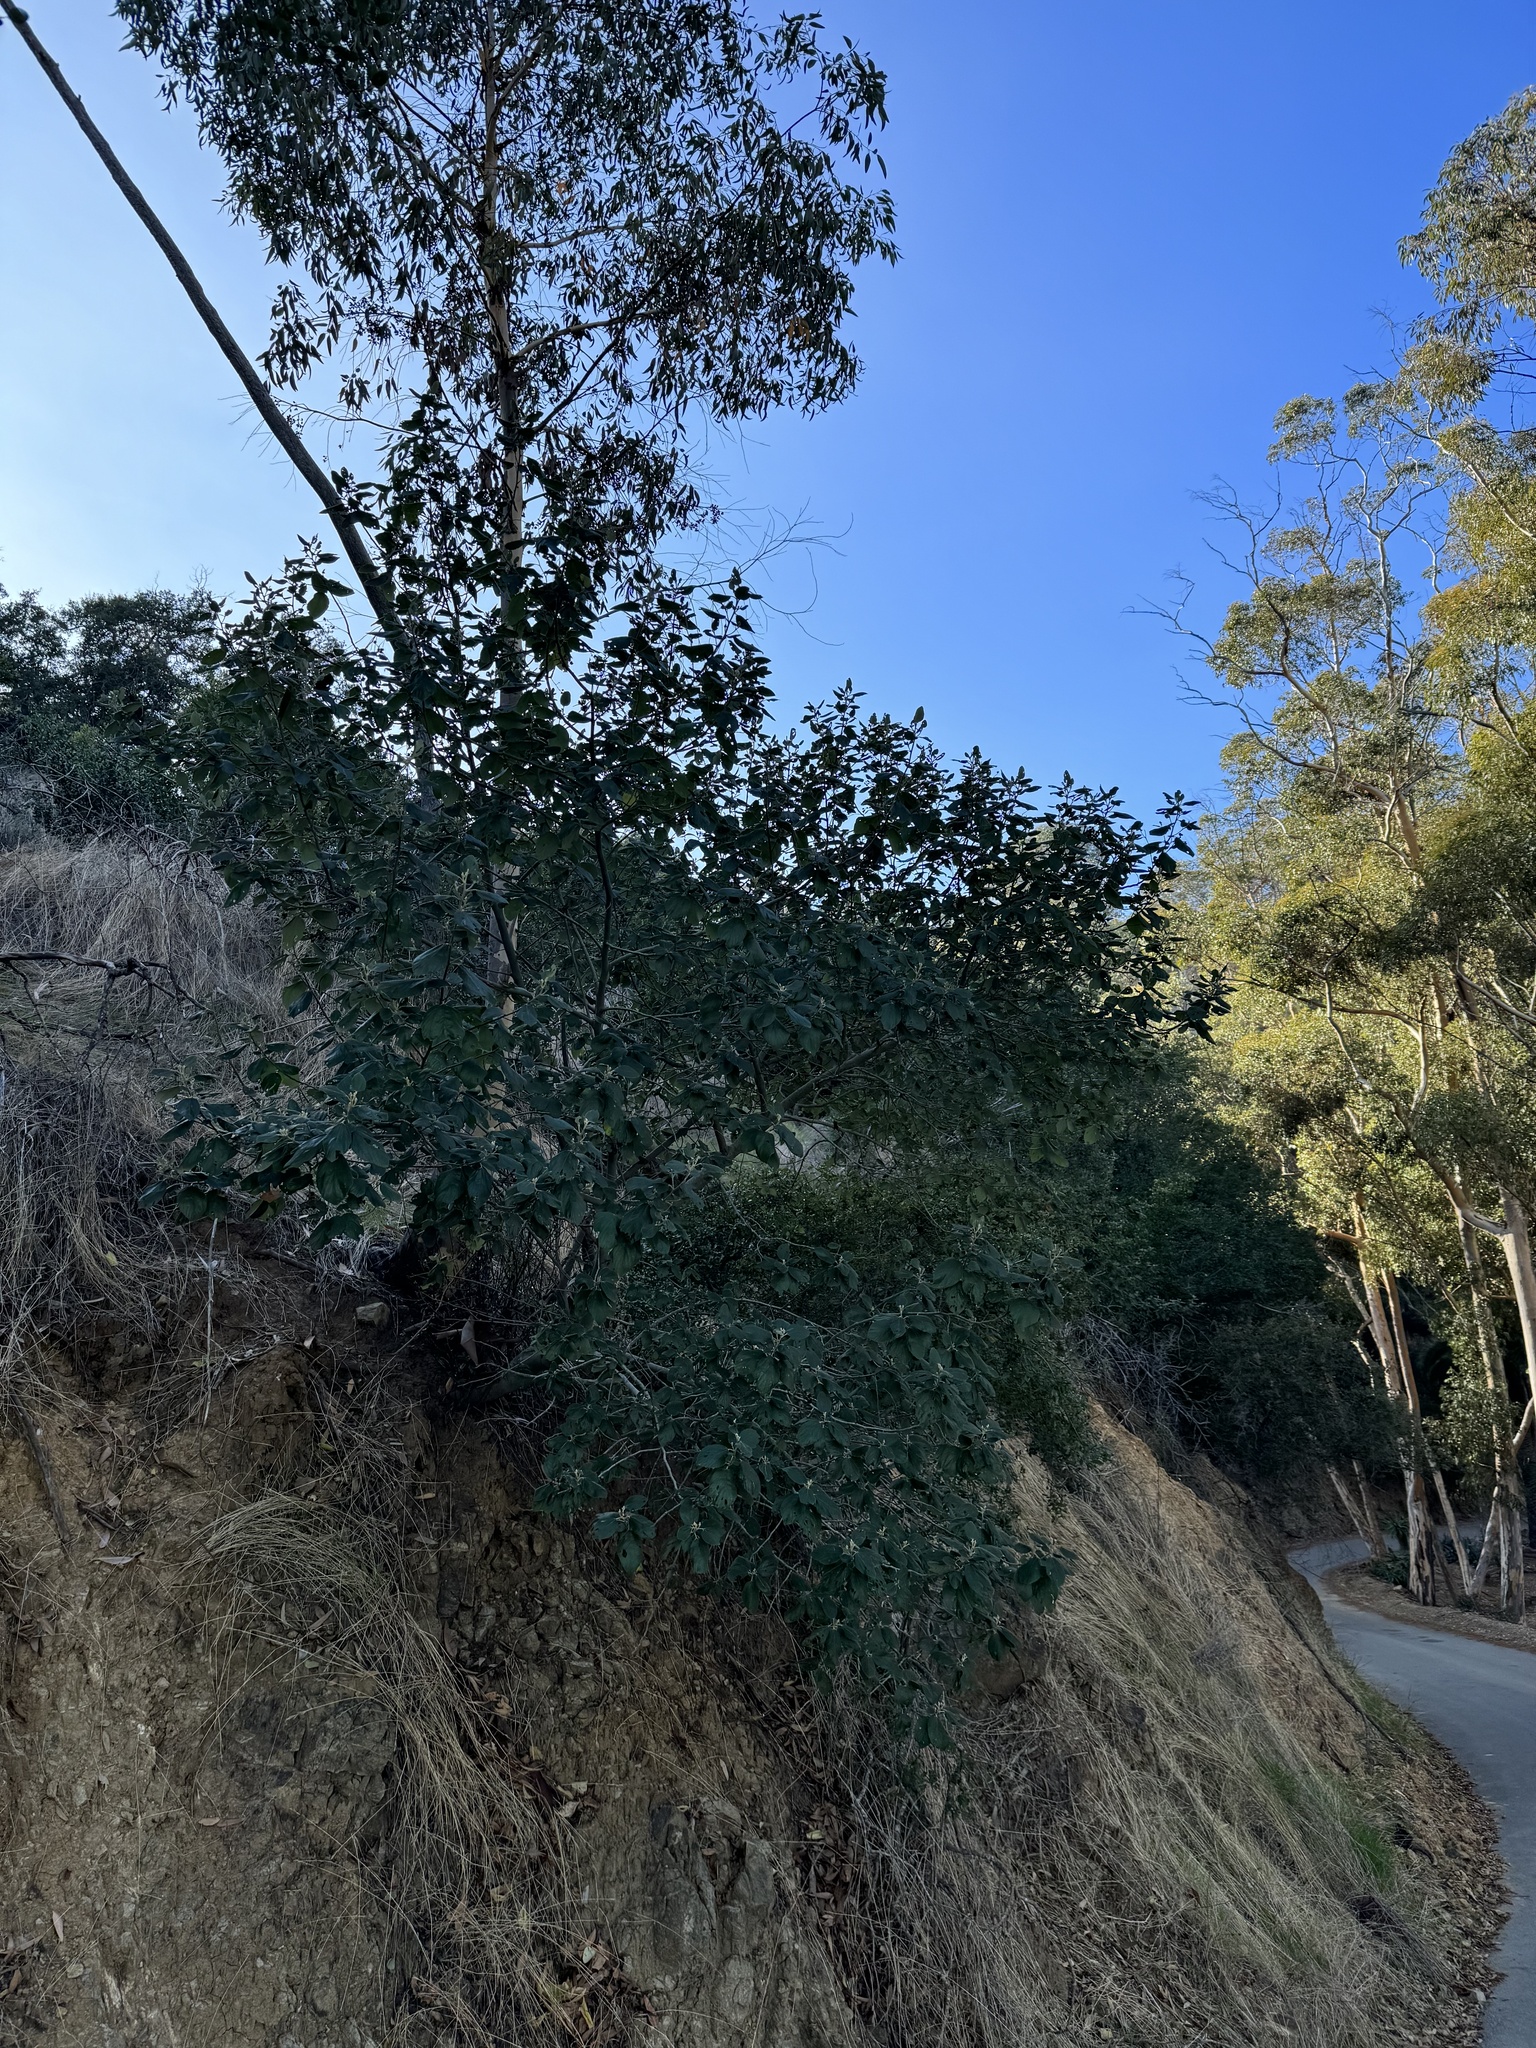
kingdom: Plantae
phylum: Tracheophyta
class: Magnoliopsida
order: Rosales
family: Rhamnaceae
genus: Ceanothus
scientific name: Ceanothus arboreus
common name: Catalina mountain-lilac
